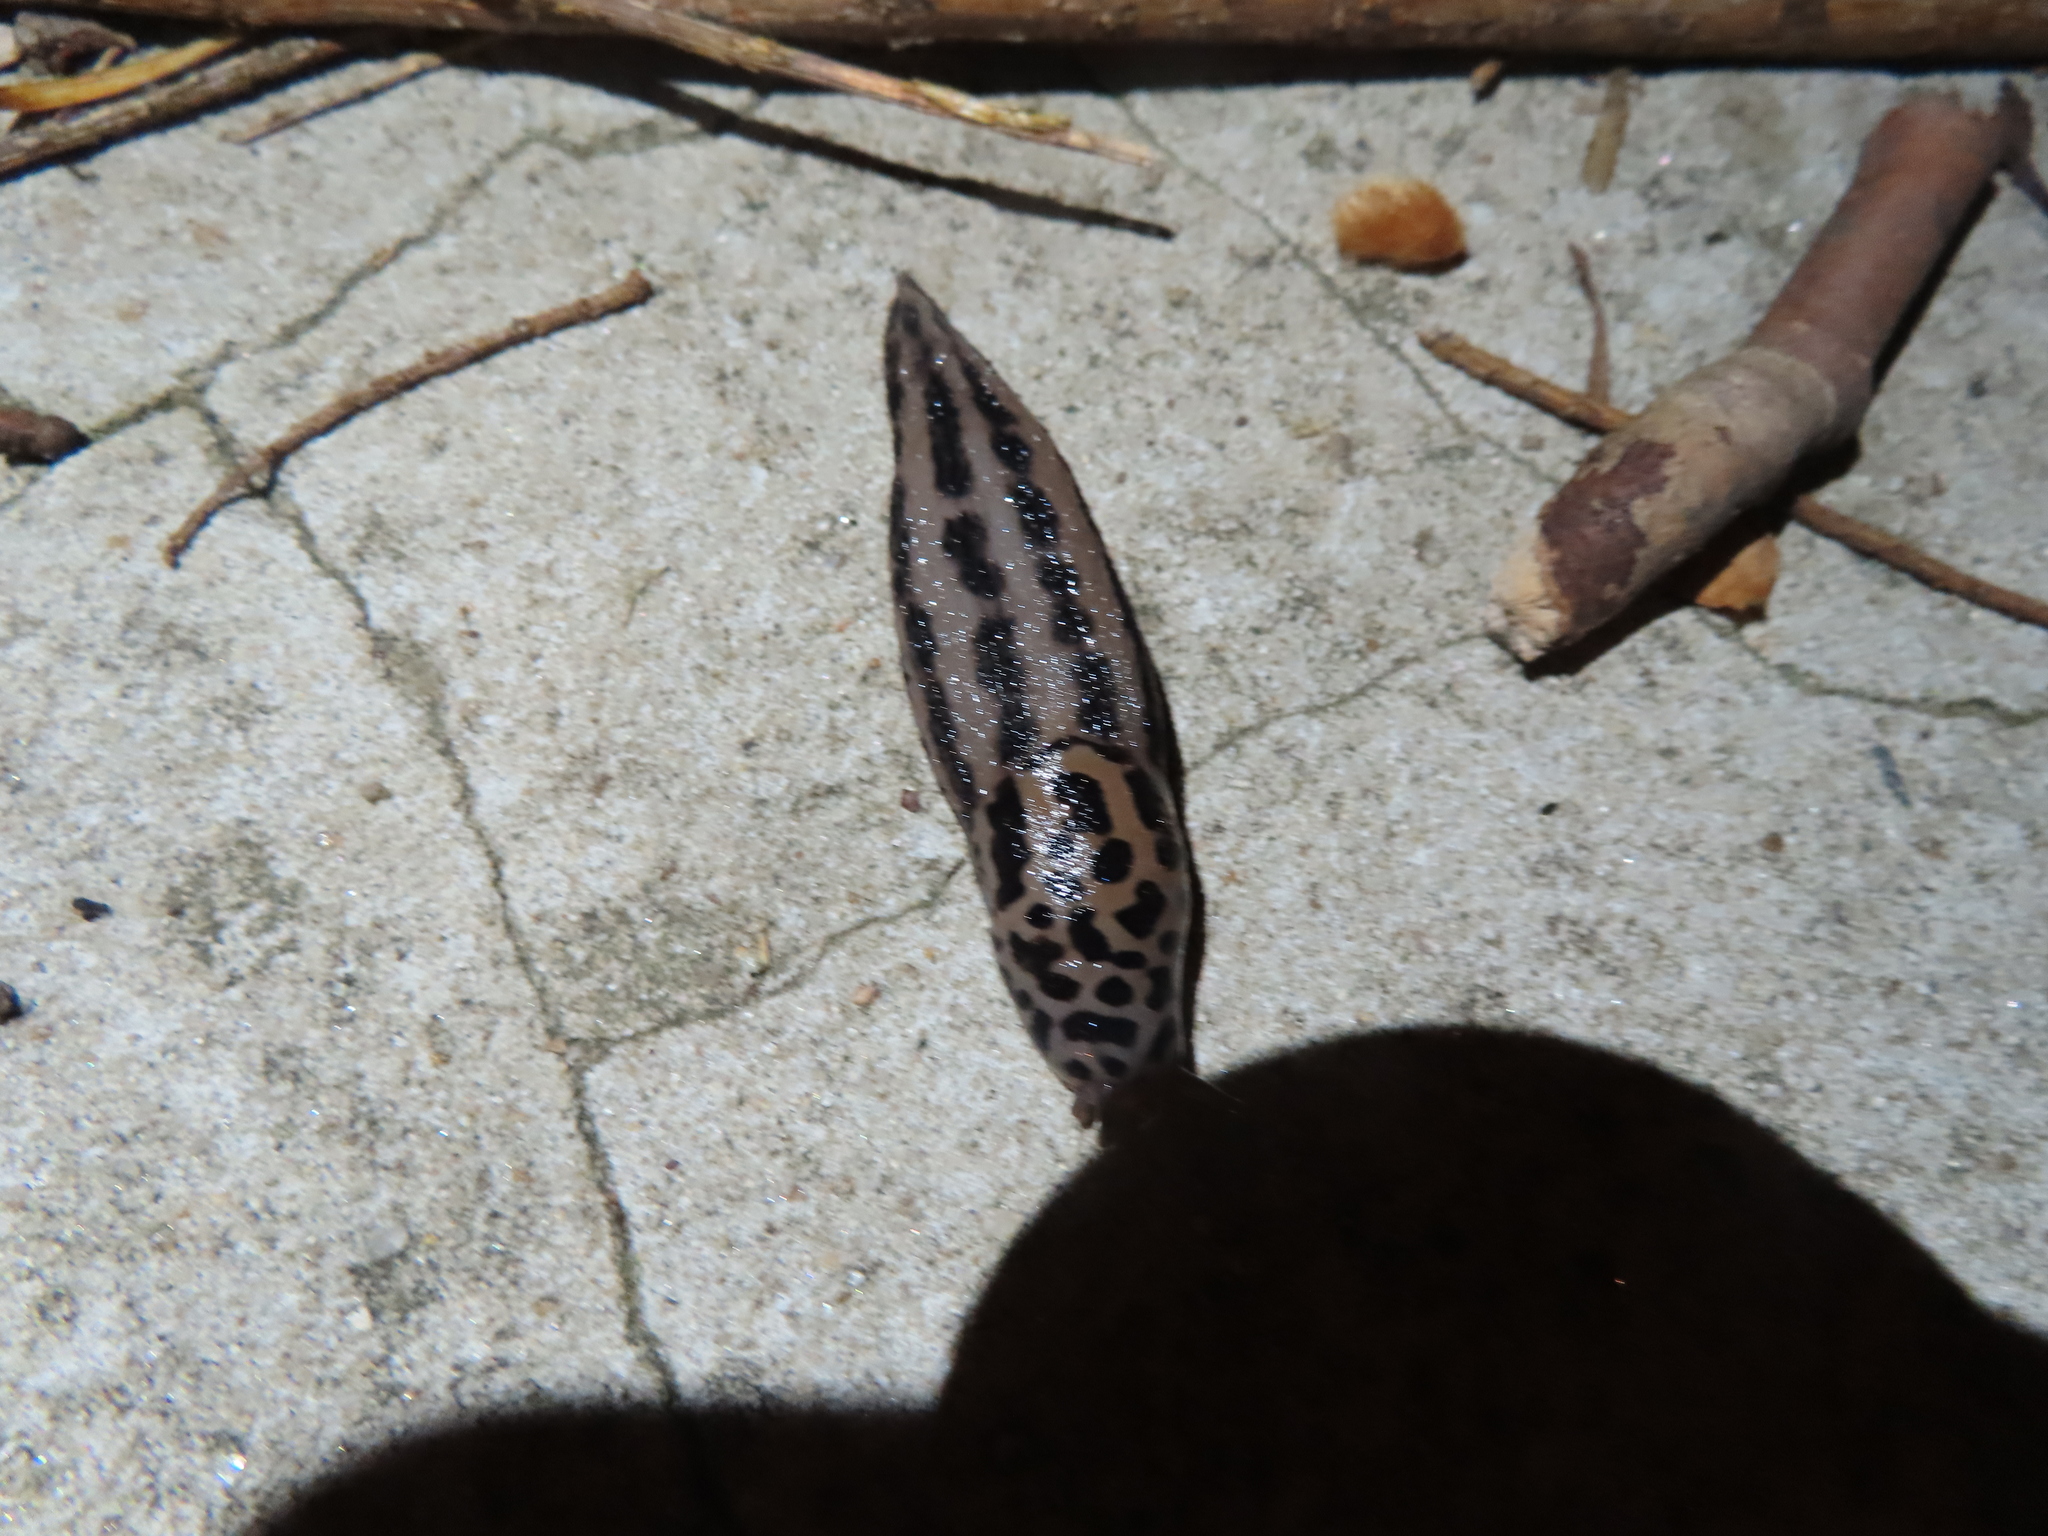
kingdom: Animalia
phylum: Mollusca
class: Gastropoda
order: Stylommatophora
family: Limacidae
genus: Limax
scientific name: Limax maximus
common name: Great grey slug
